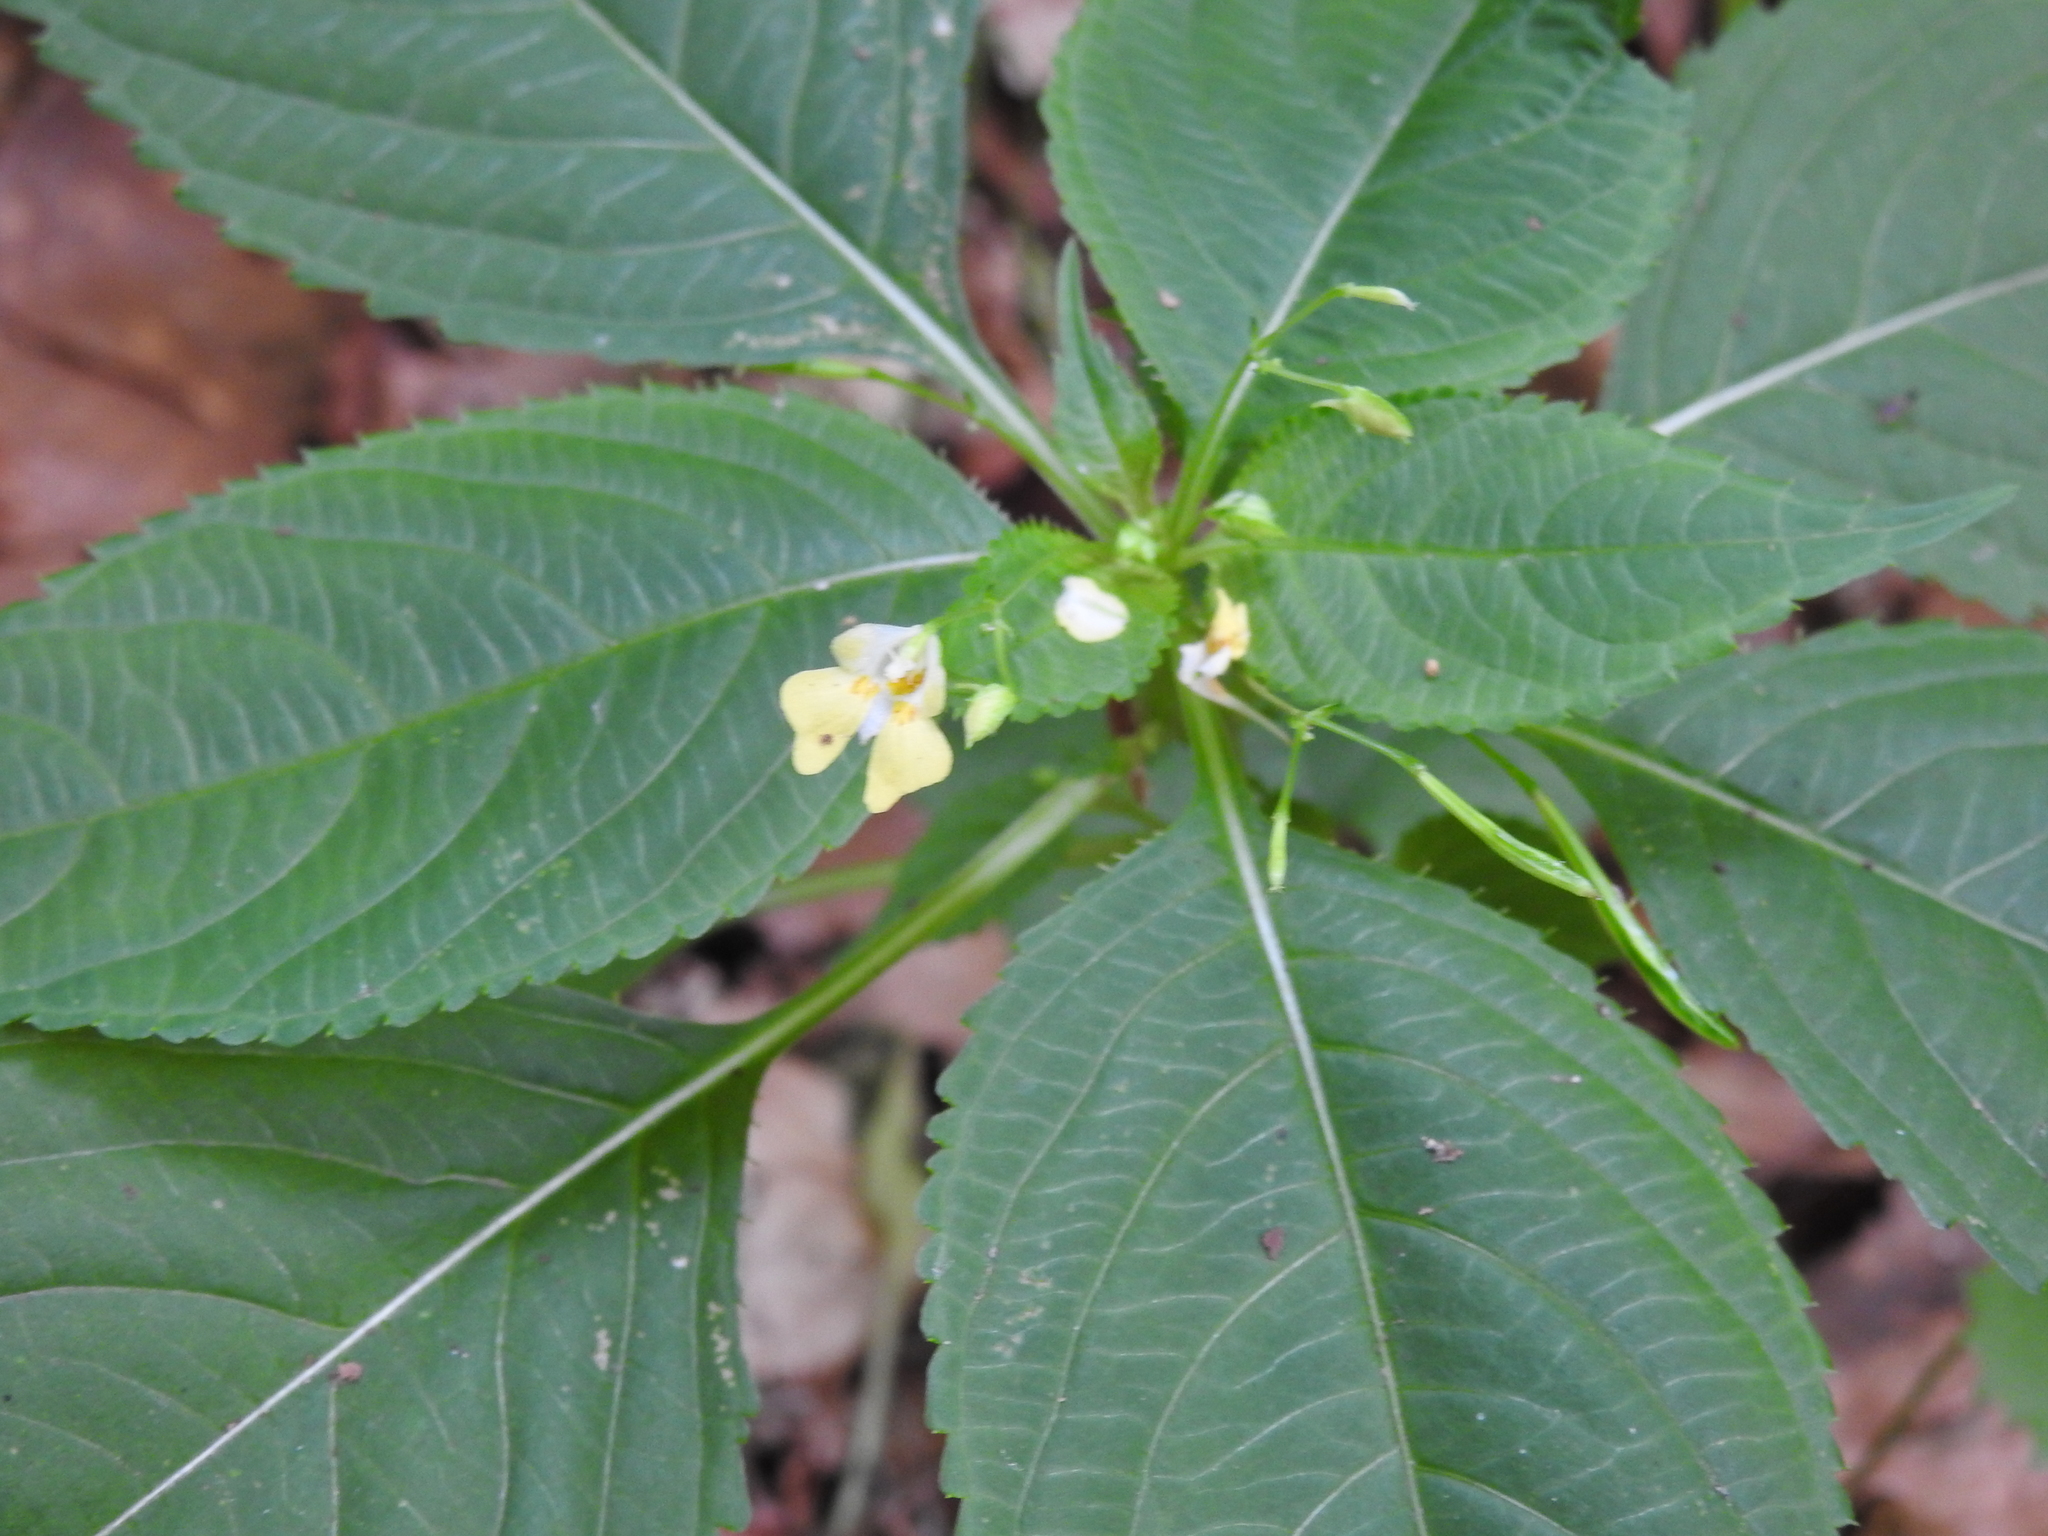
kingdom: Plantae
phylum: Tracheophyta
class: Magnoliopsida
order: Ericales
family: Balsaminaceae
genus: Impatiens
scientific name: Impatiens parviflora
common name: Small balsam
